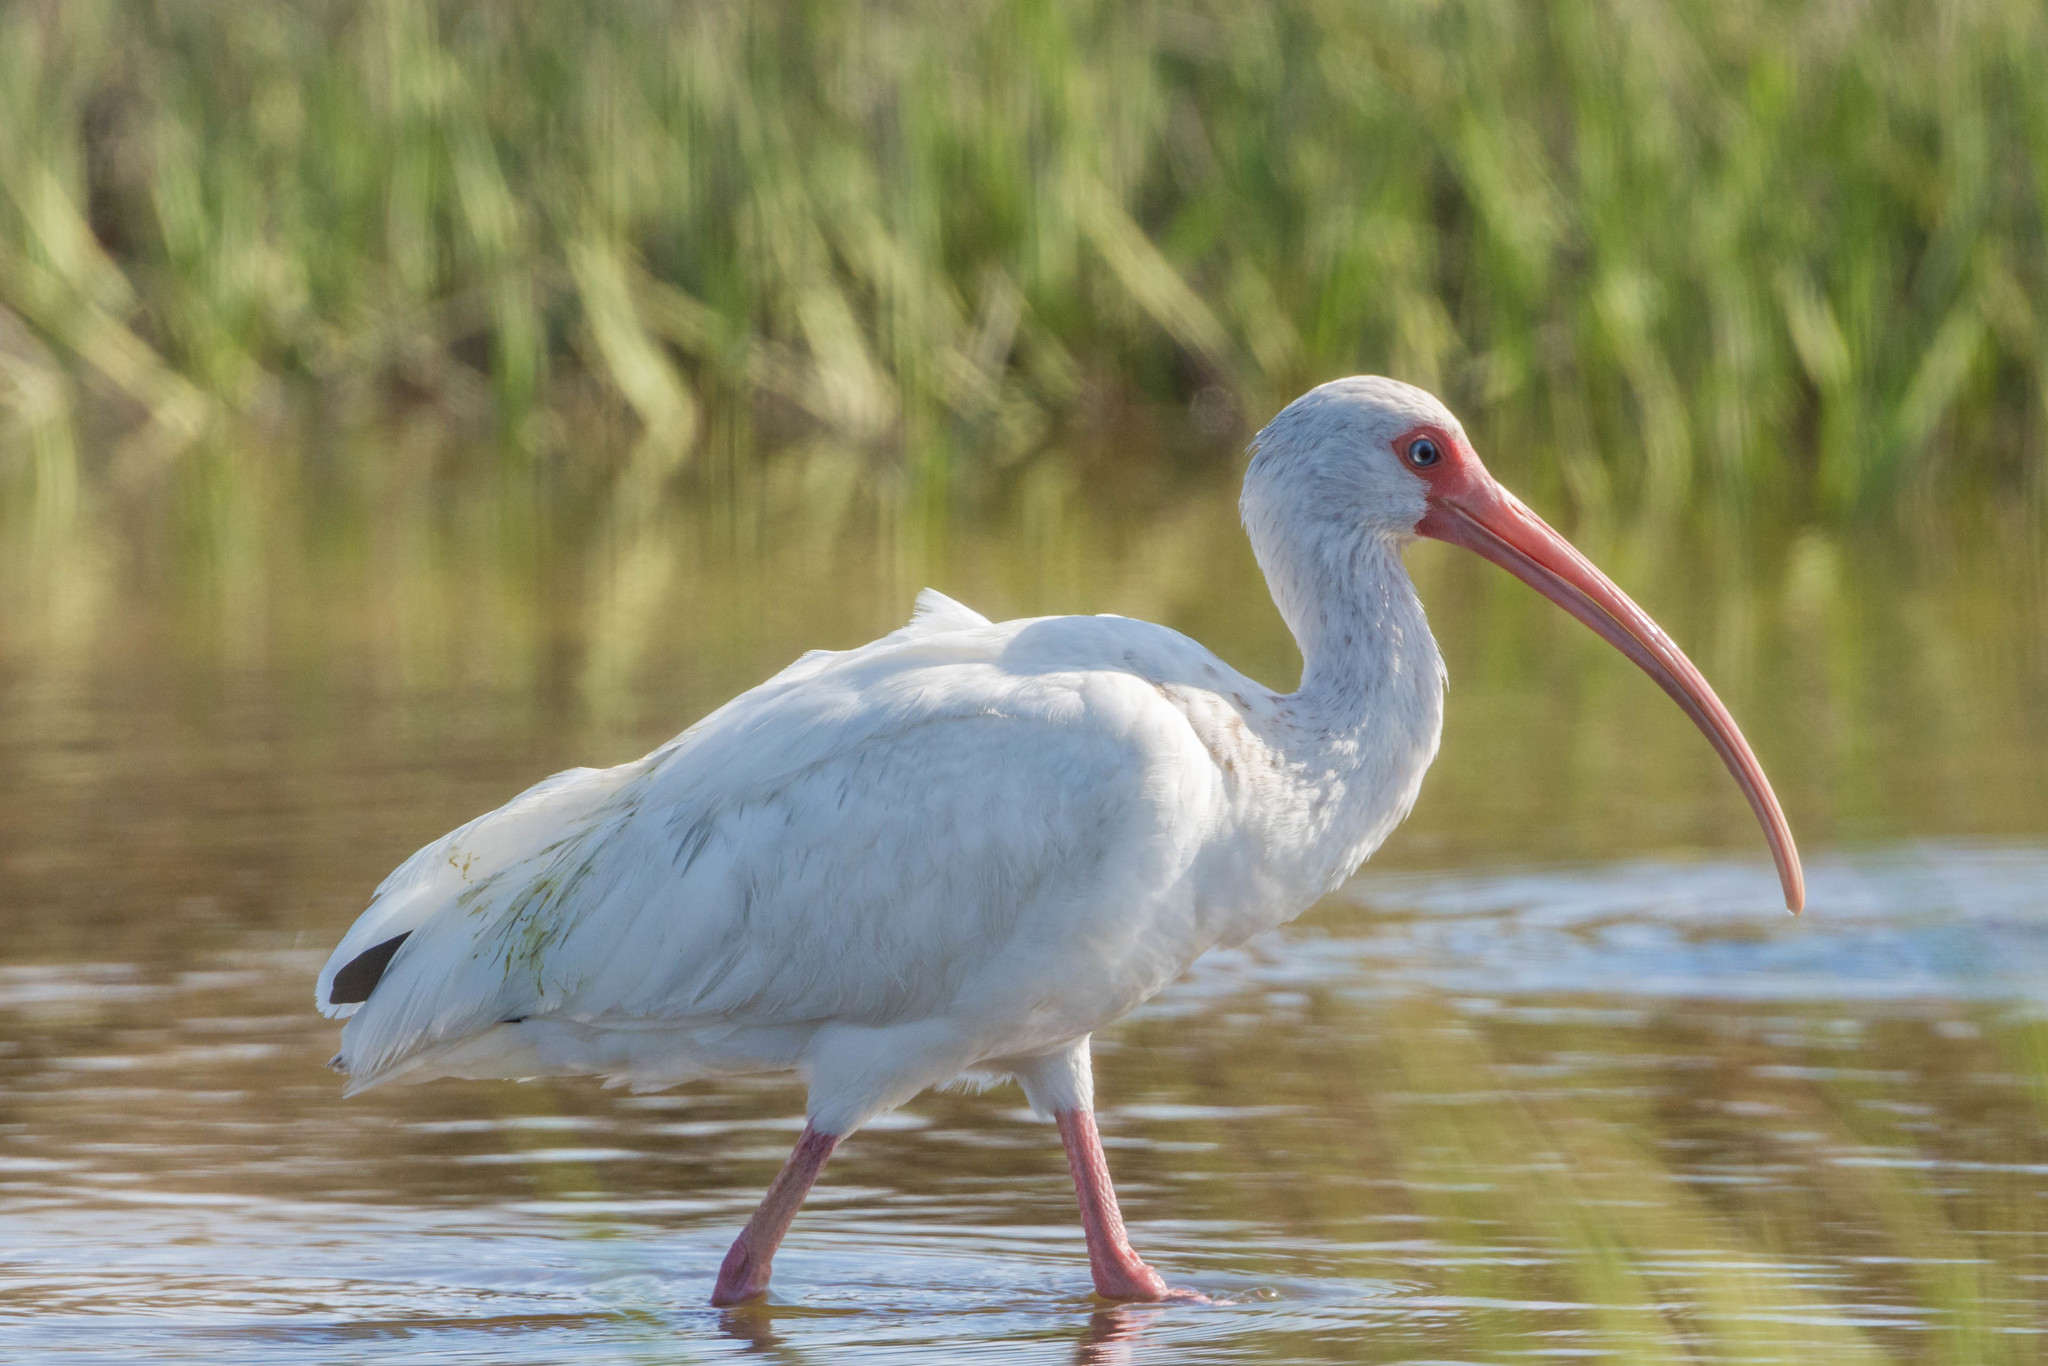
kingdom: Animalia
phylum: Chordata
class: Aves
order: Pelecaniformes
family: Threskiornithidae
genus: Eudocimus
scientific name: Eudocimus albus
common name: White ibis
